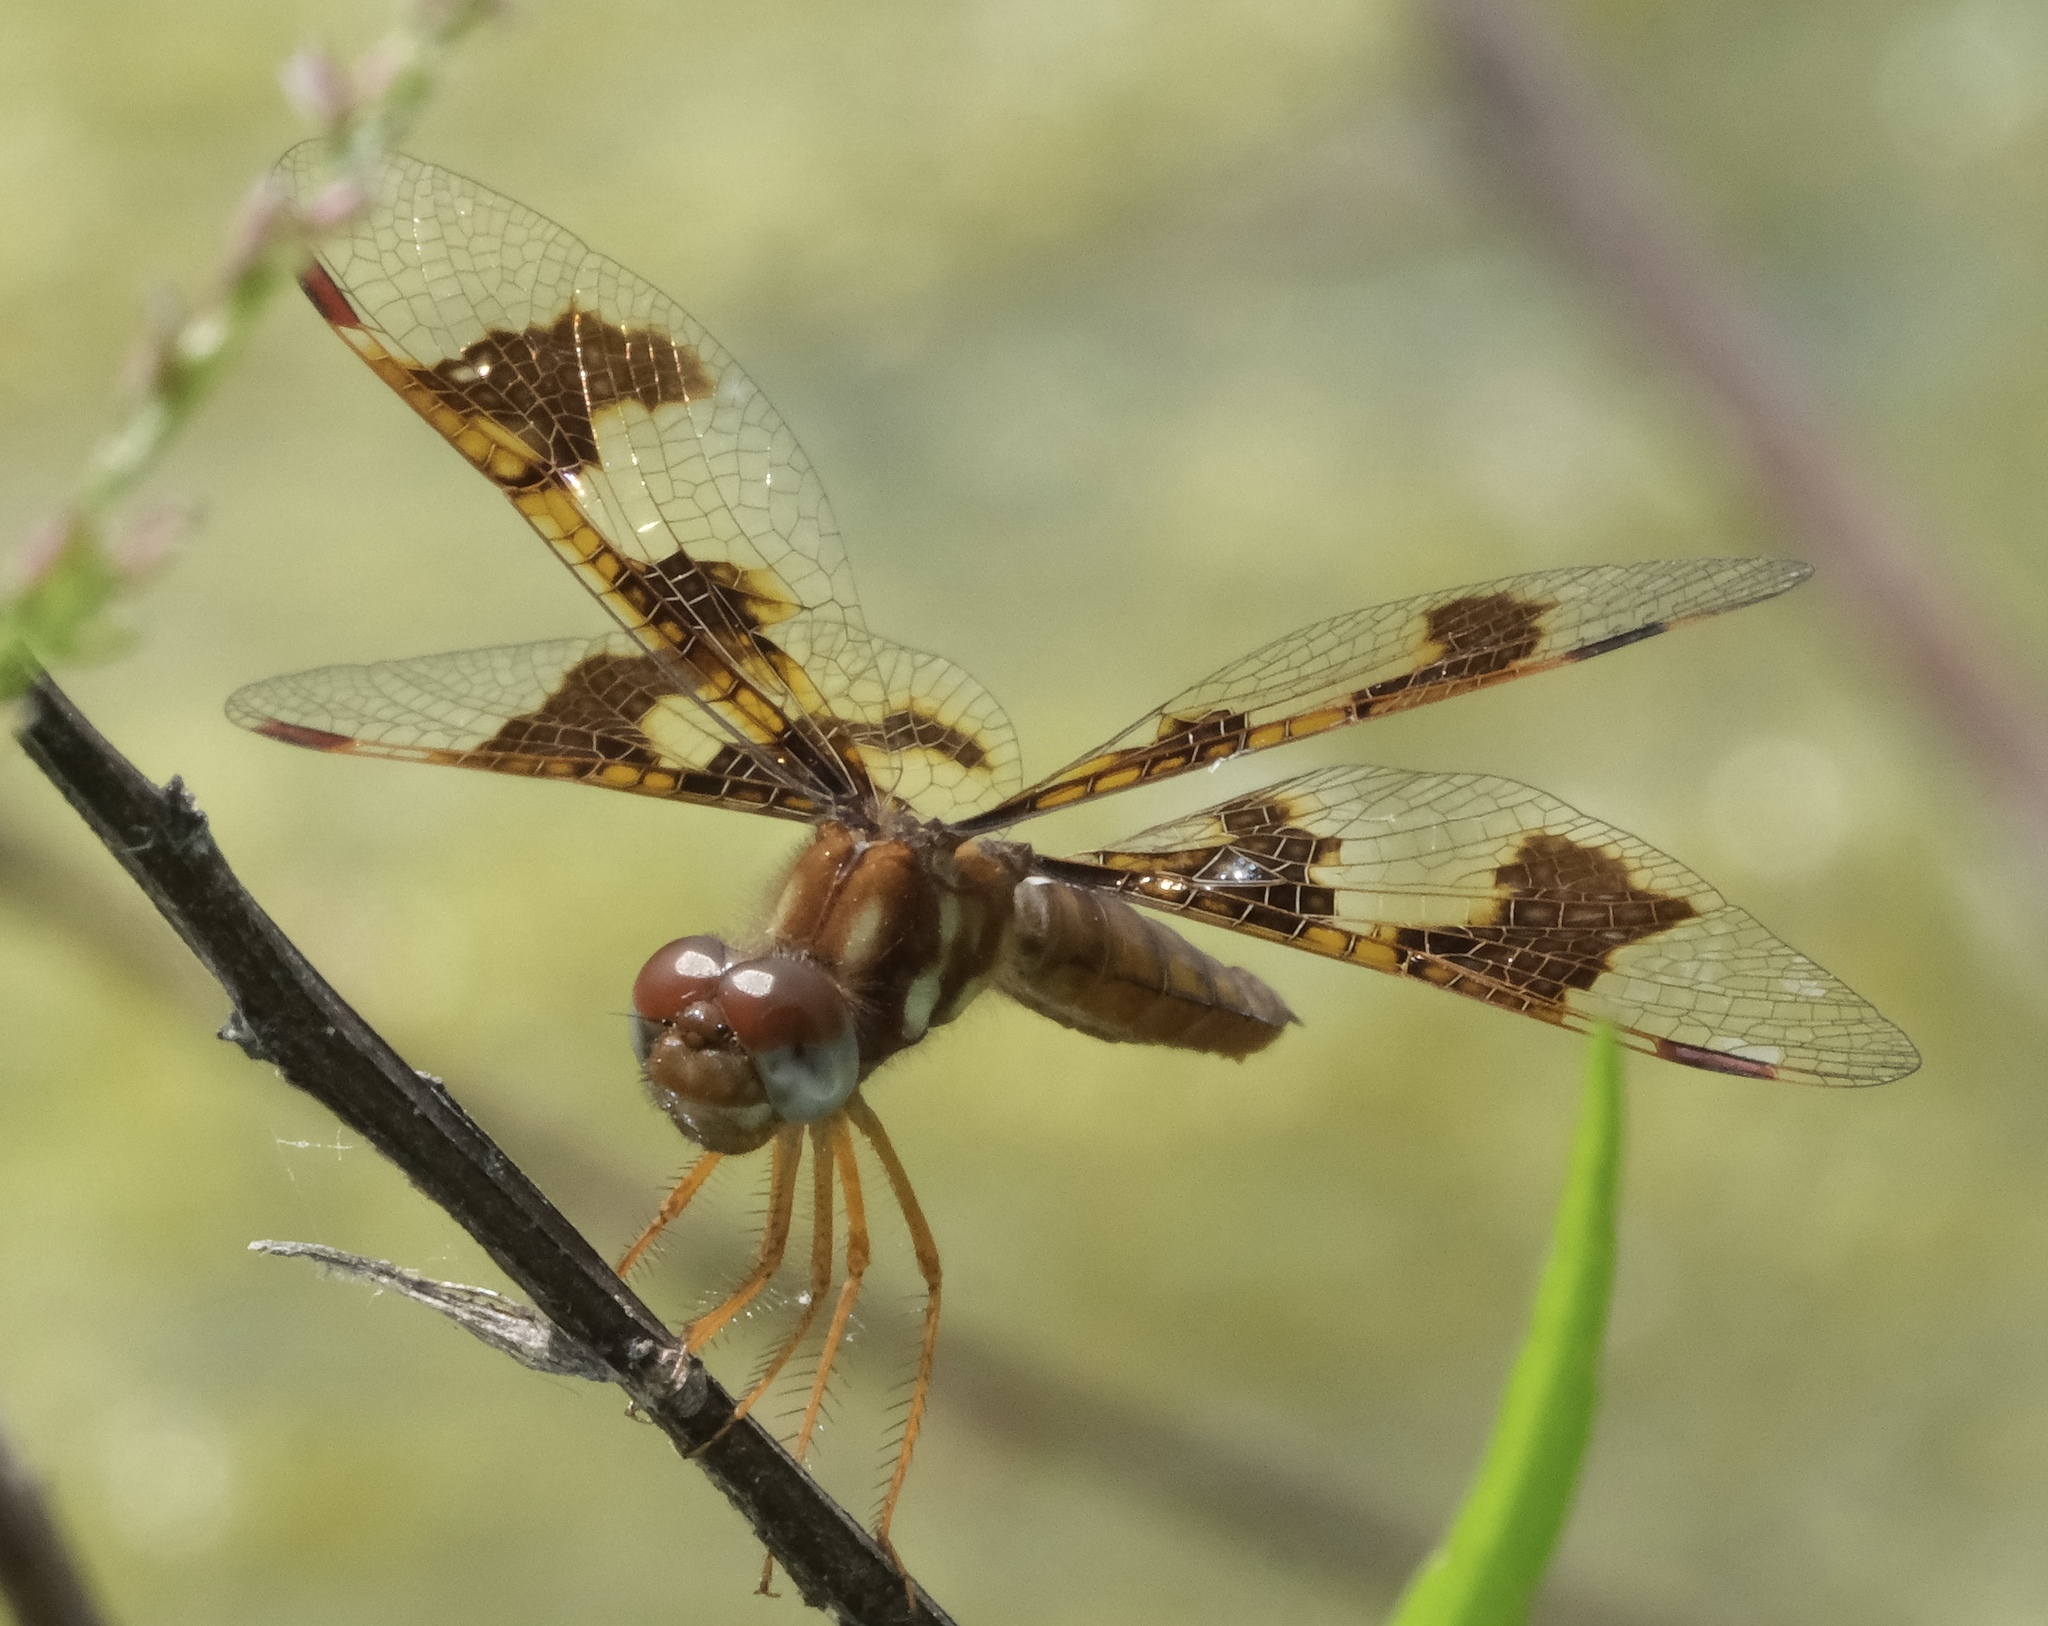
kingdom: Animalia
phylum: Arthropoda
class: Insecta
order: Odonata
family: Libellulidae
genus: Perithemis
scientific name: Perithemis tenera
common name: Eastern amberwing
